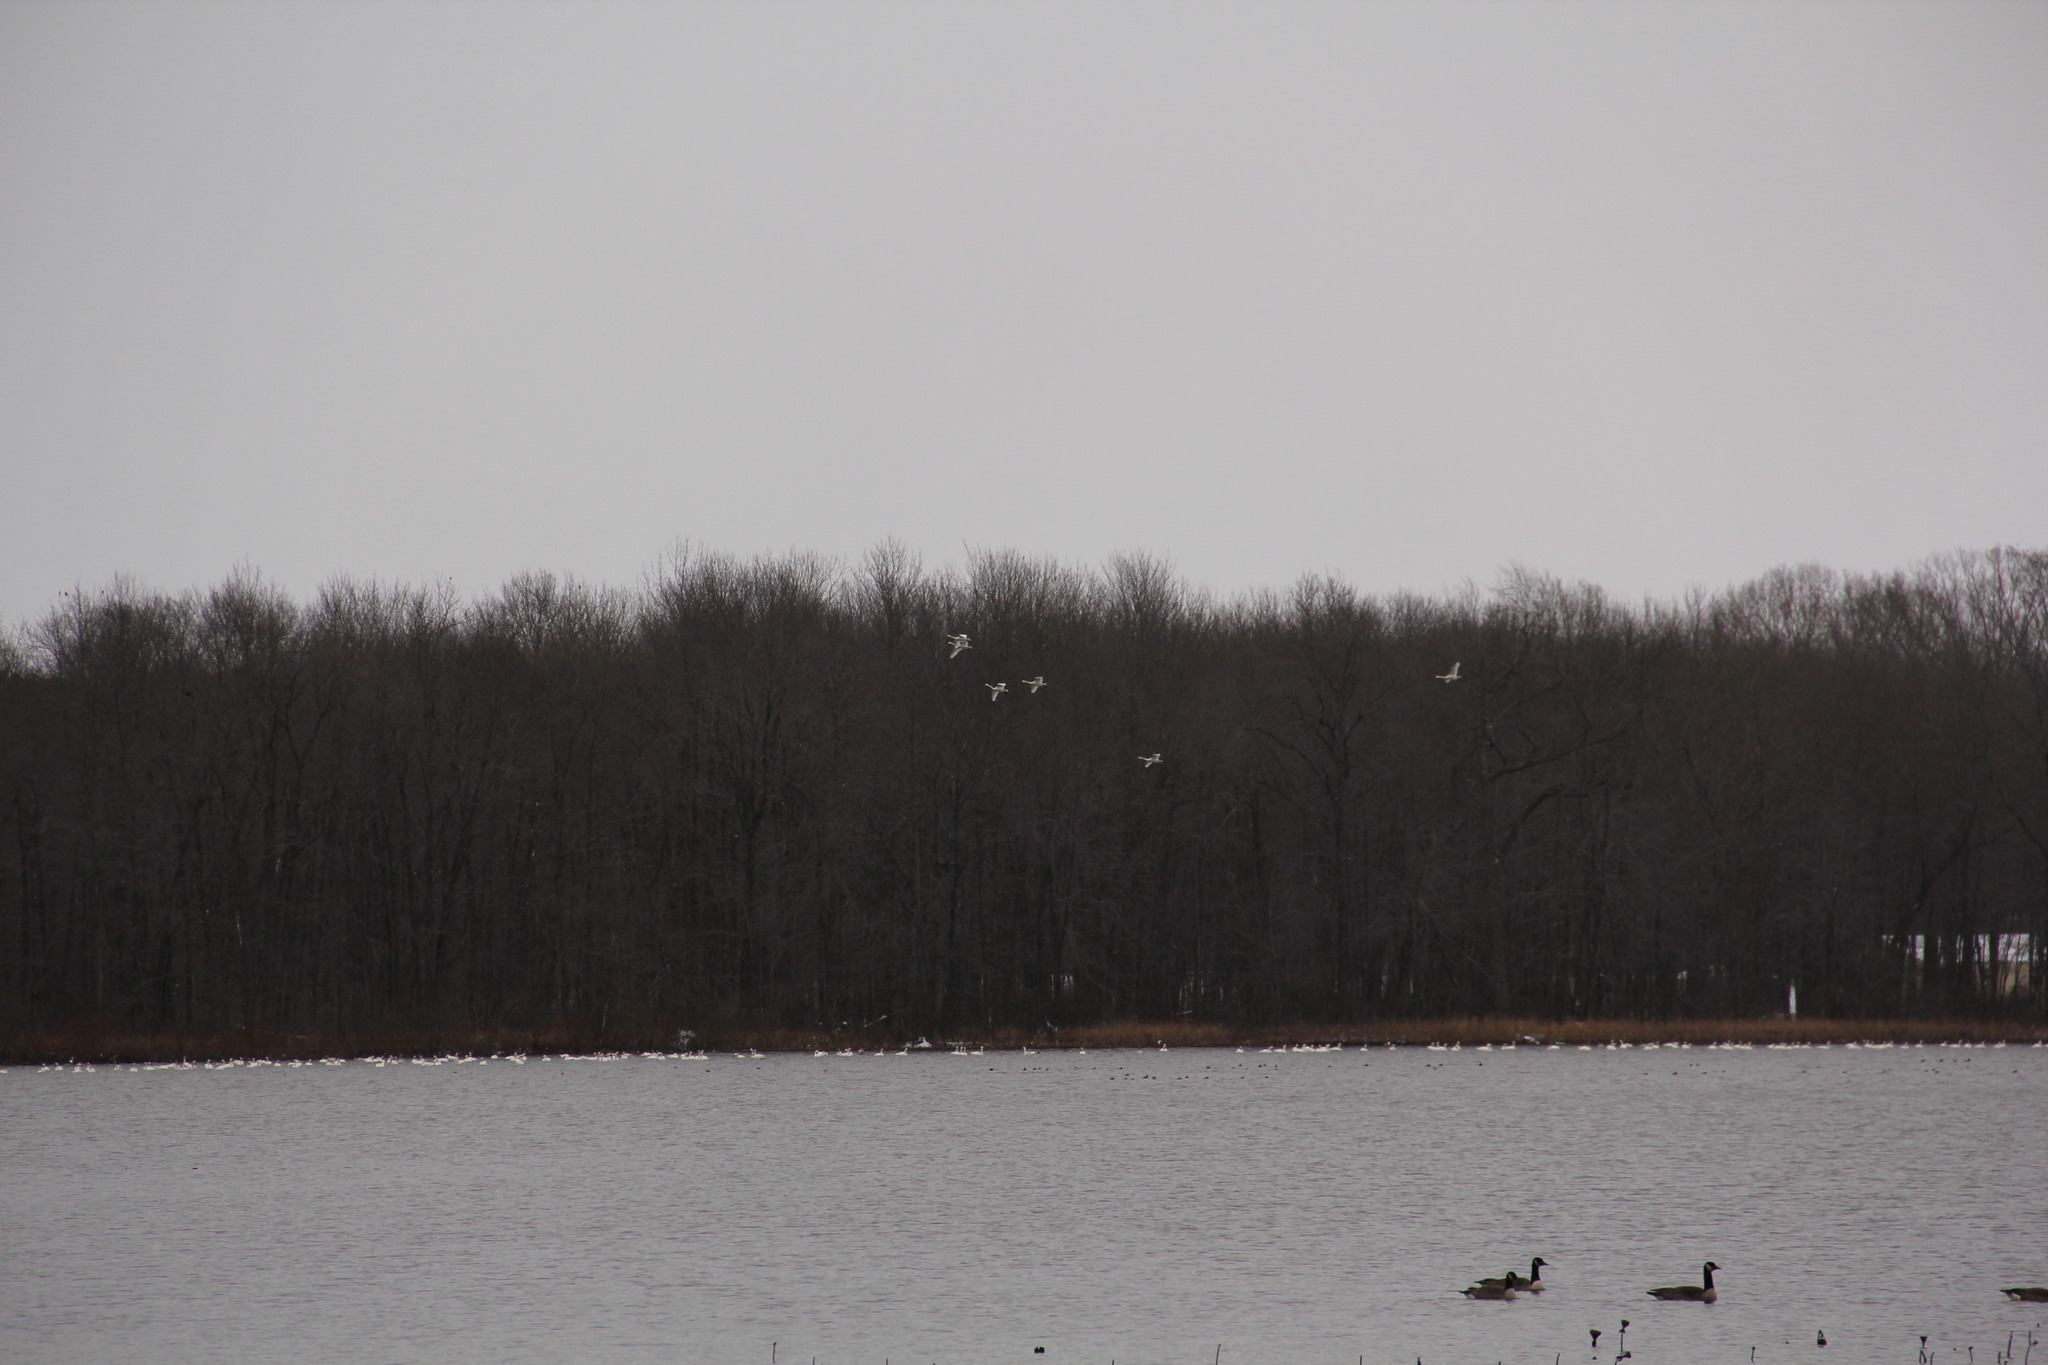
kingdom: Animalia
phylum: Chordata
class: Aves
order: Anseriformes
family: Anatidae
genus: Cygnus
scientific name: Cygnus columbianus
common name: Tundra swan
